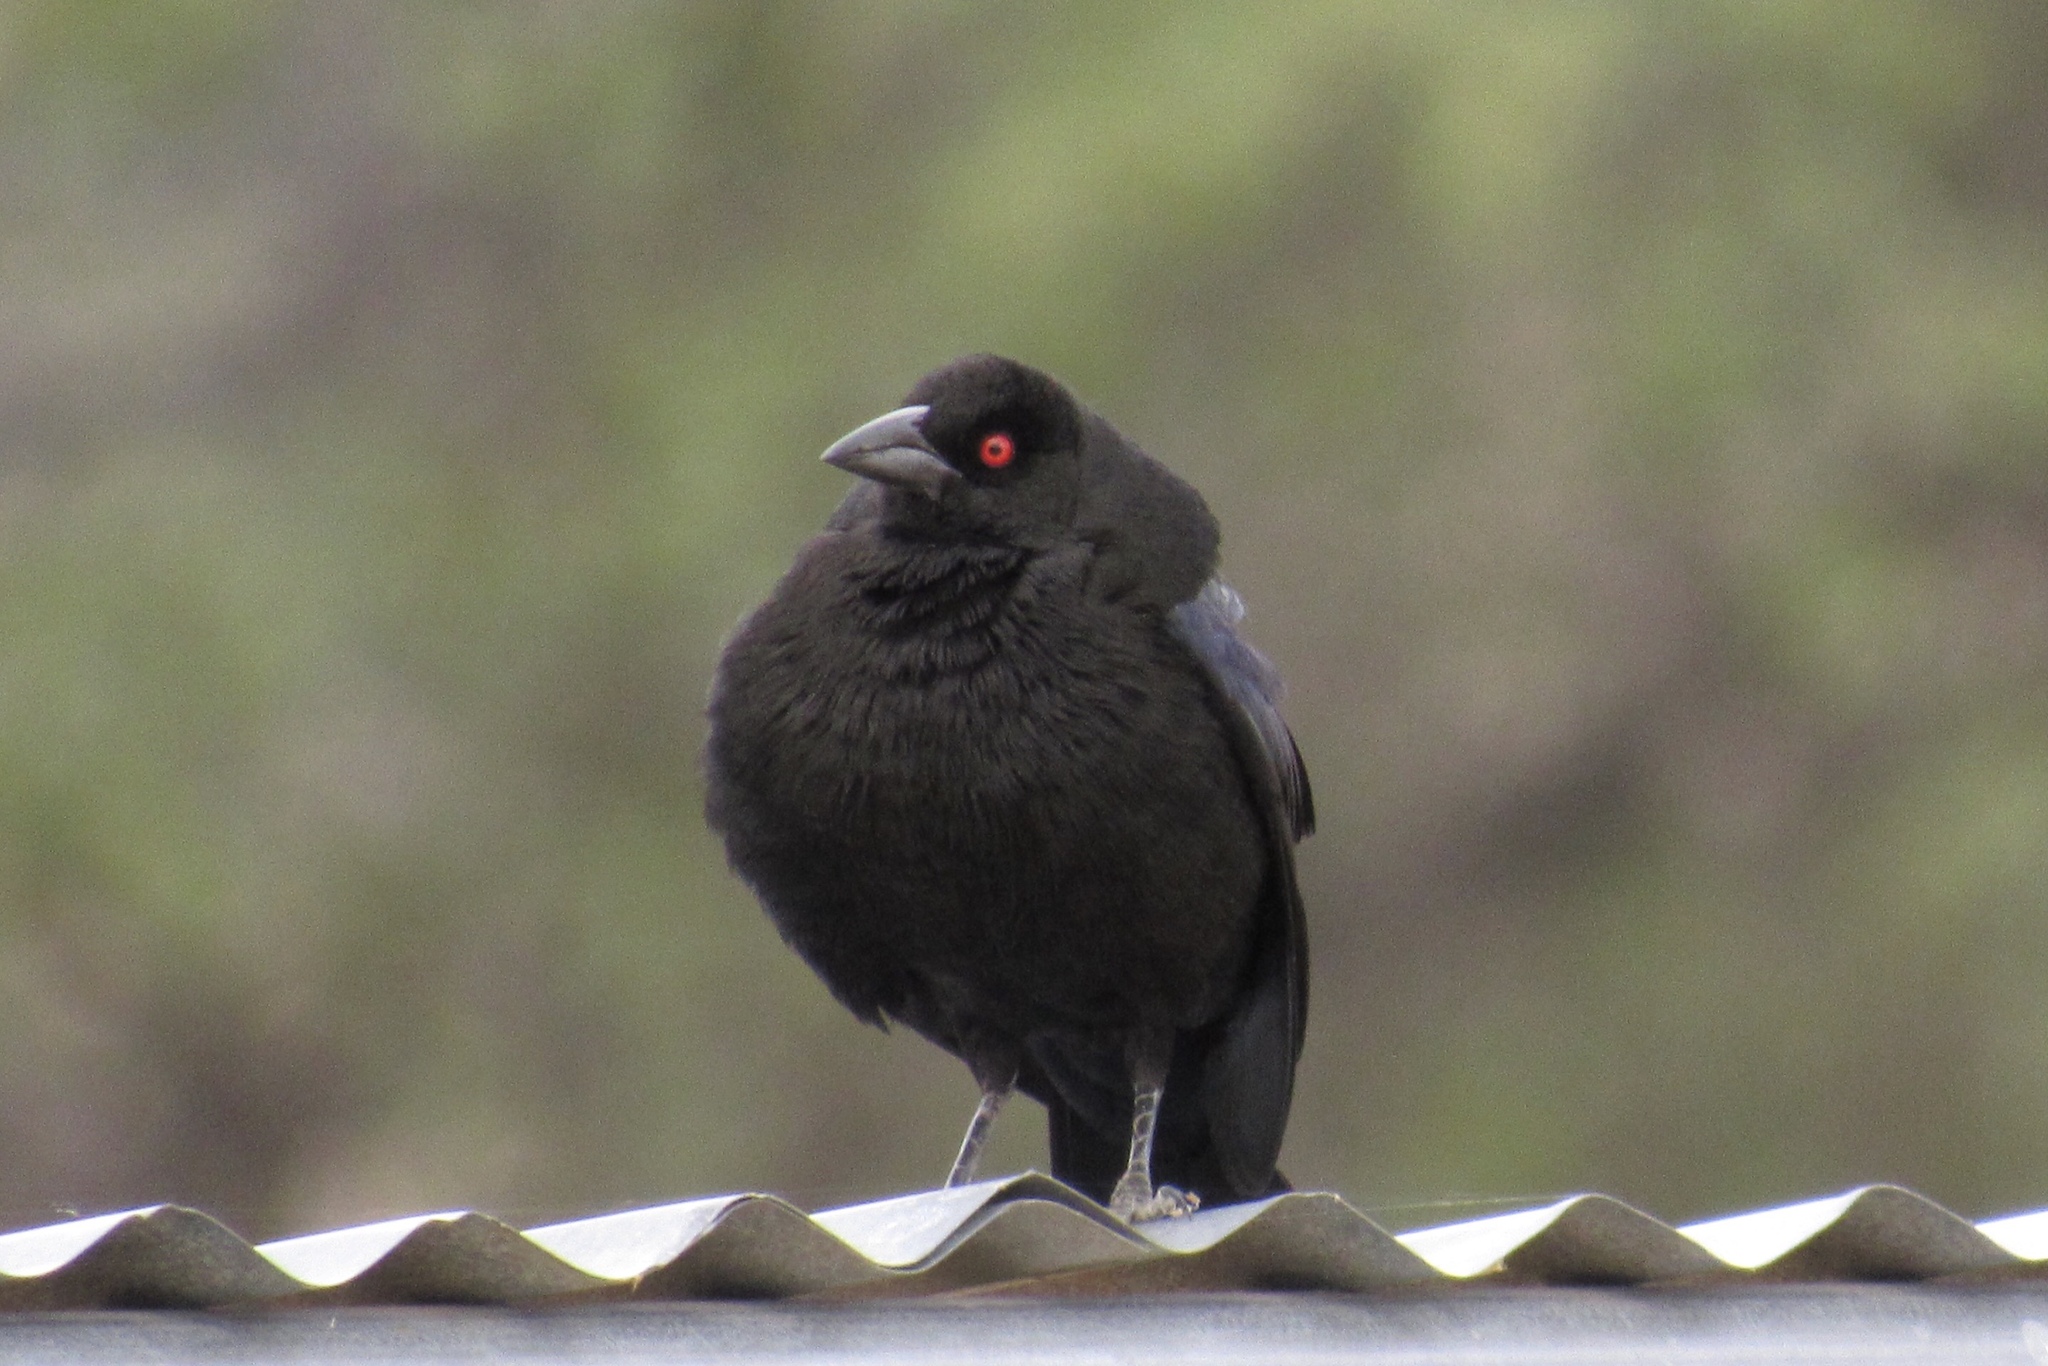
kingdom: Animalia
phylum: Chordata
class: Aves
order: Passeriformes
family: Icteridae
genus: Molothrus
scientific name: Molothrus aeneus
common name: Bronzed cowbird
